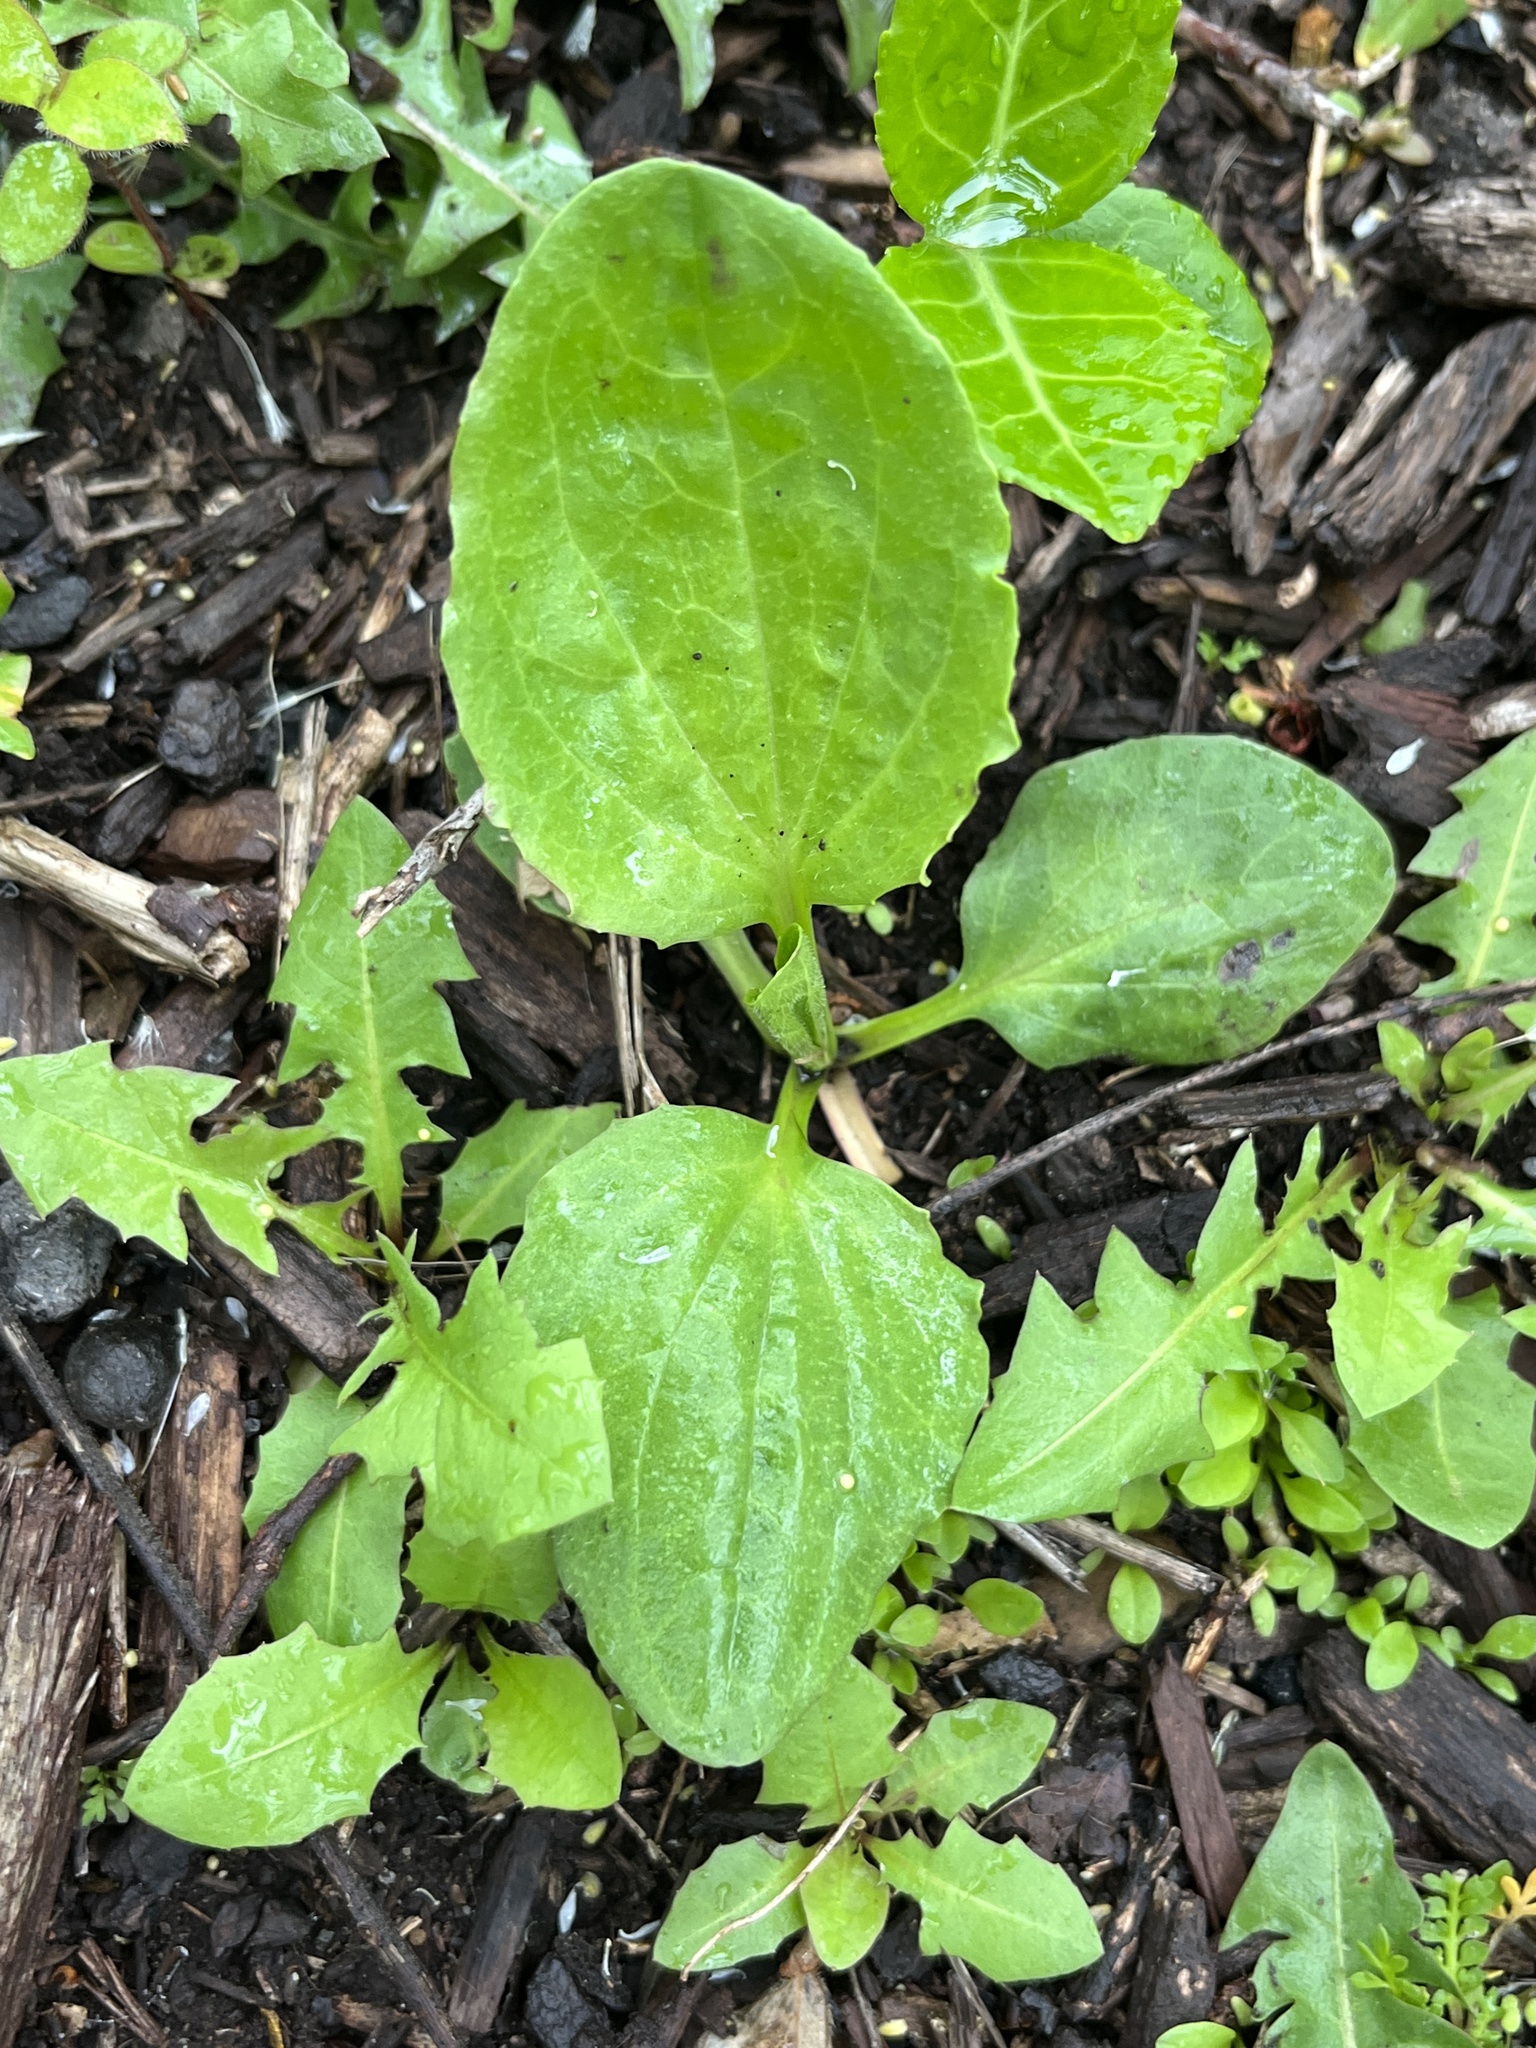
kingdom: Plantae
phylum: Tracheophyta
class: Magnoliopsida
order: Lamiales
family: Plantaginaceae
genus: Plantago
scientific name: Plantago major
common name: Common plantain
